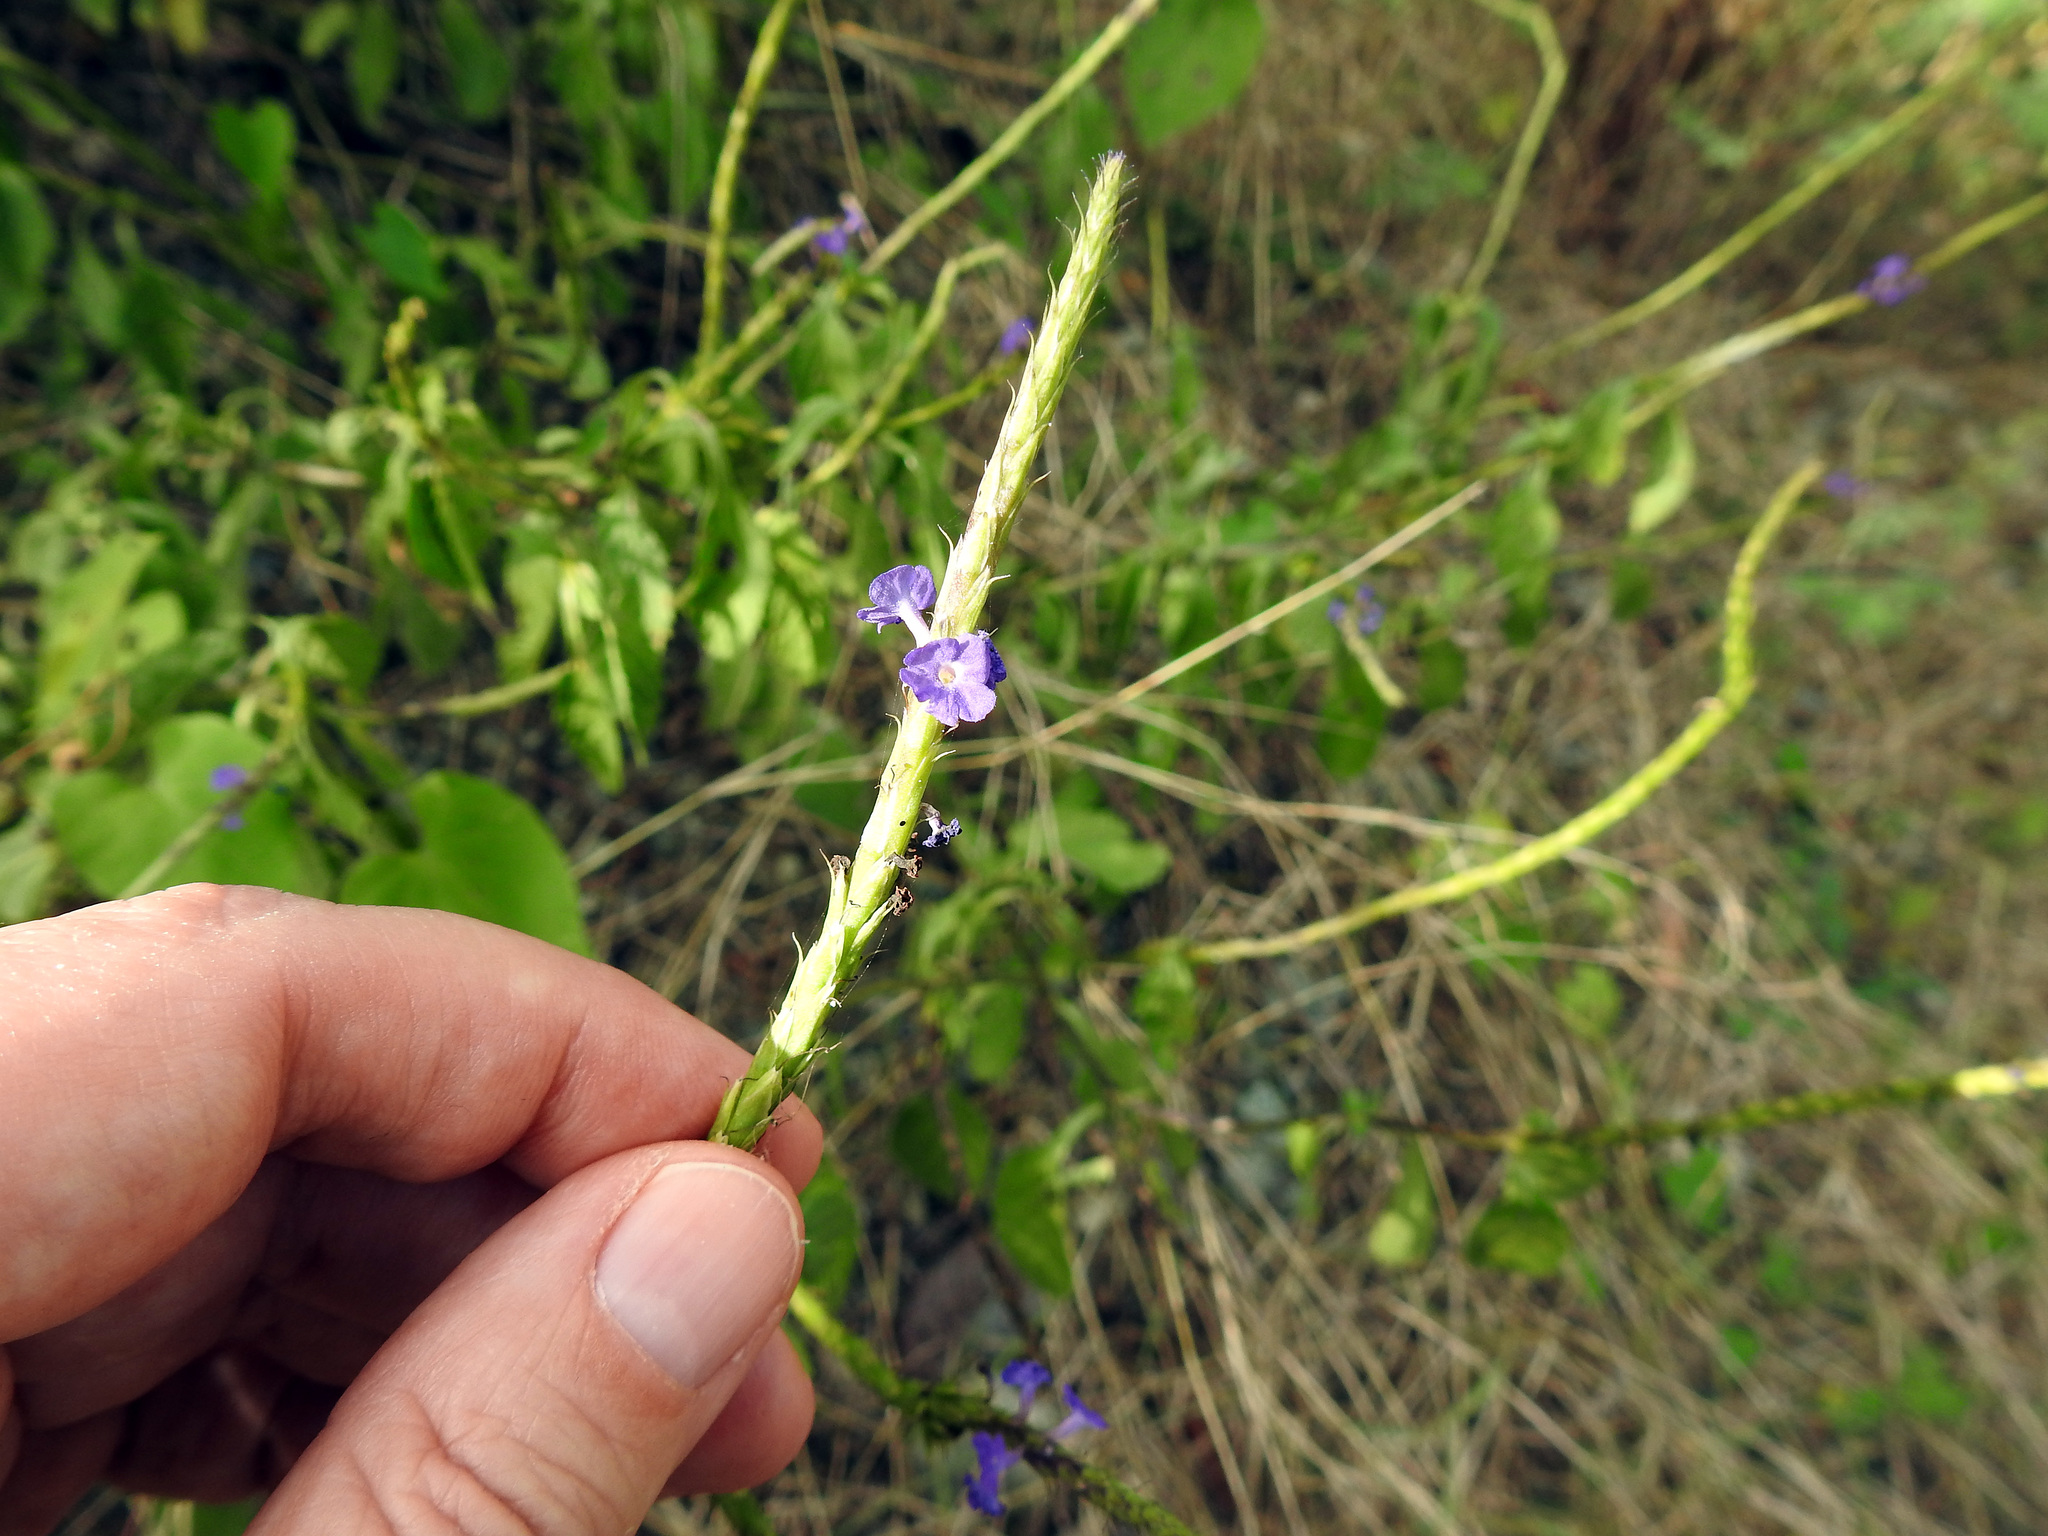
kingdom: Plantae
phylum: Tracheophyta
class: Magnoliopsida
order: Lamiales
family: Verbenaceae
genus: Stachytarpheta
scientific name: Stachytarpheta jamaicensis
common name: Light-blue snakeweed
